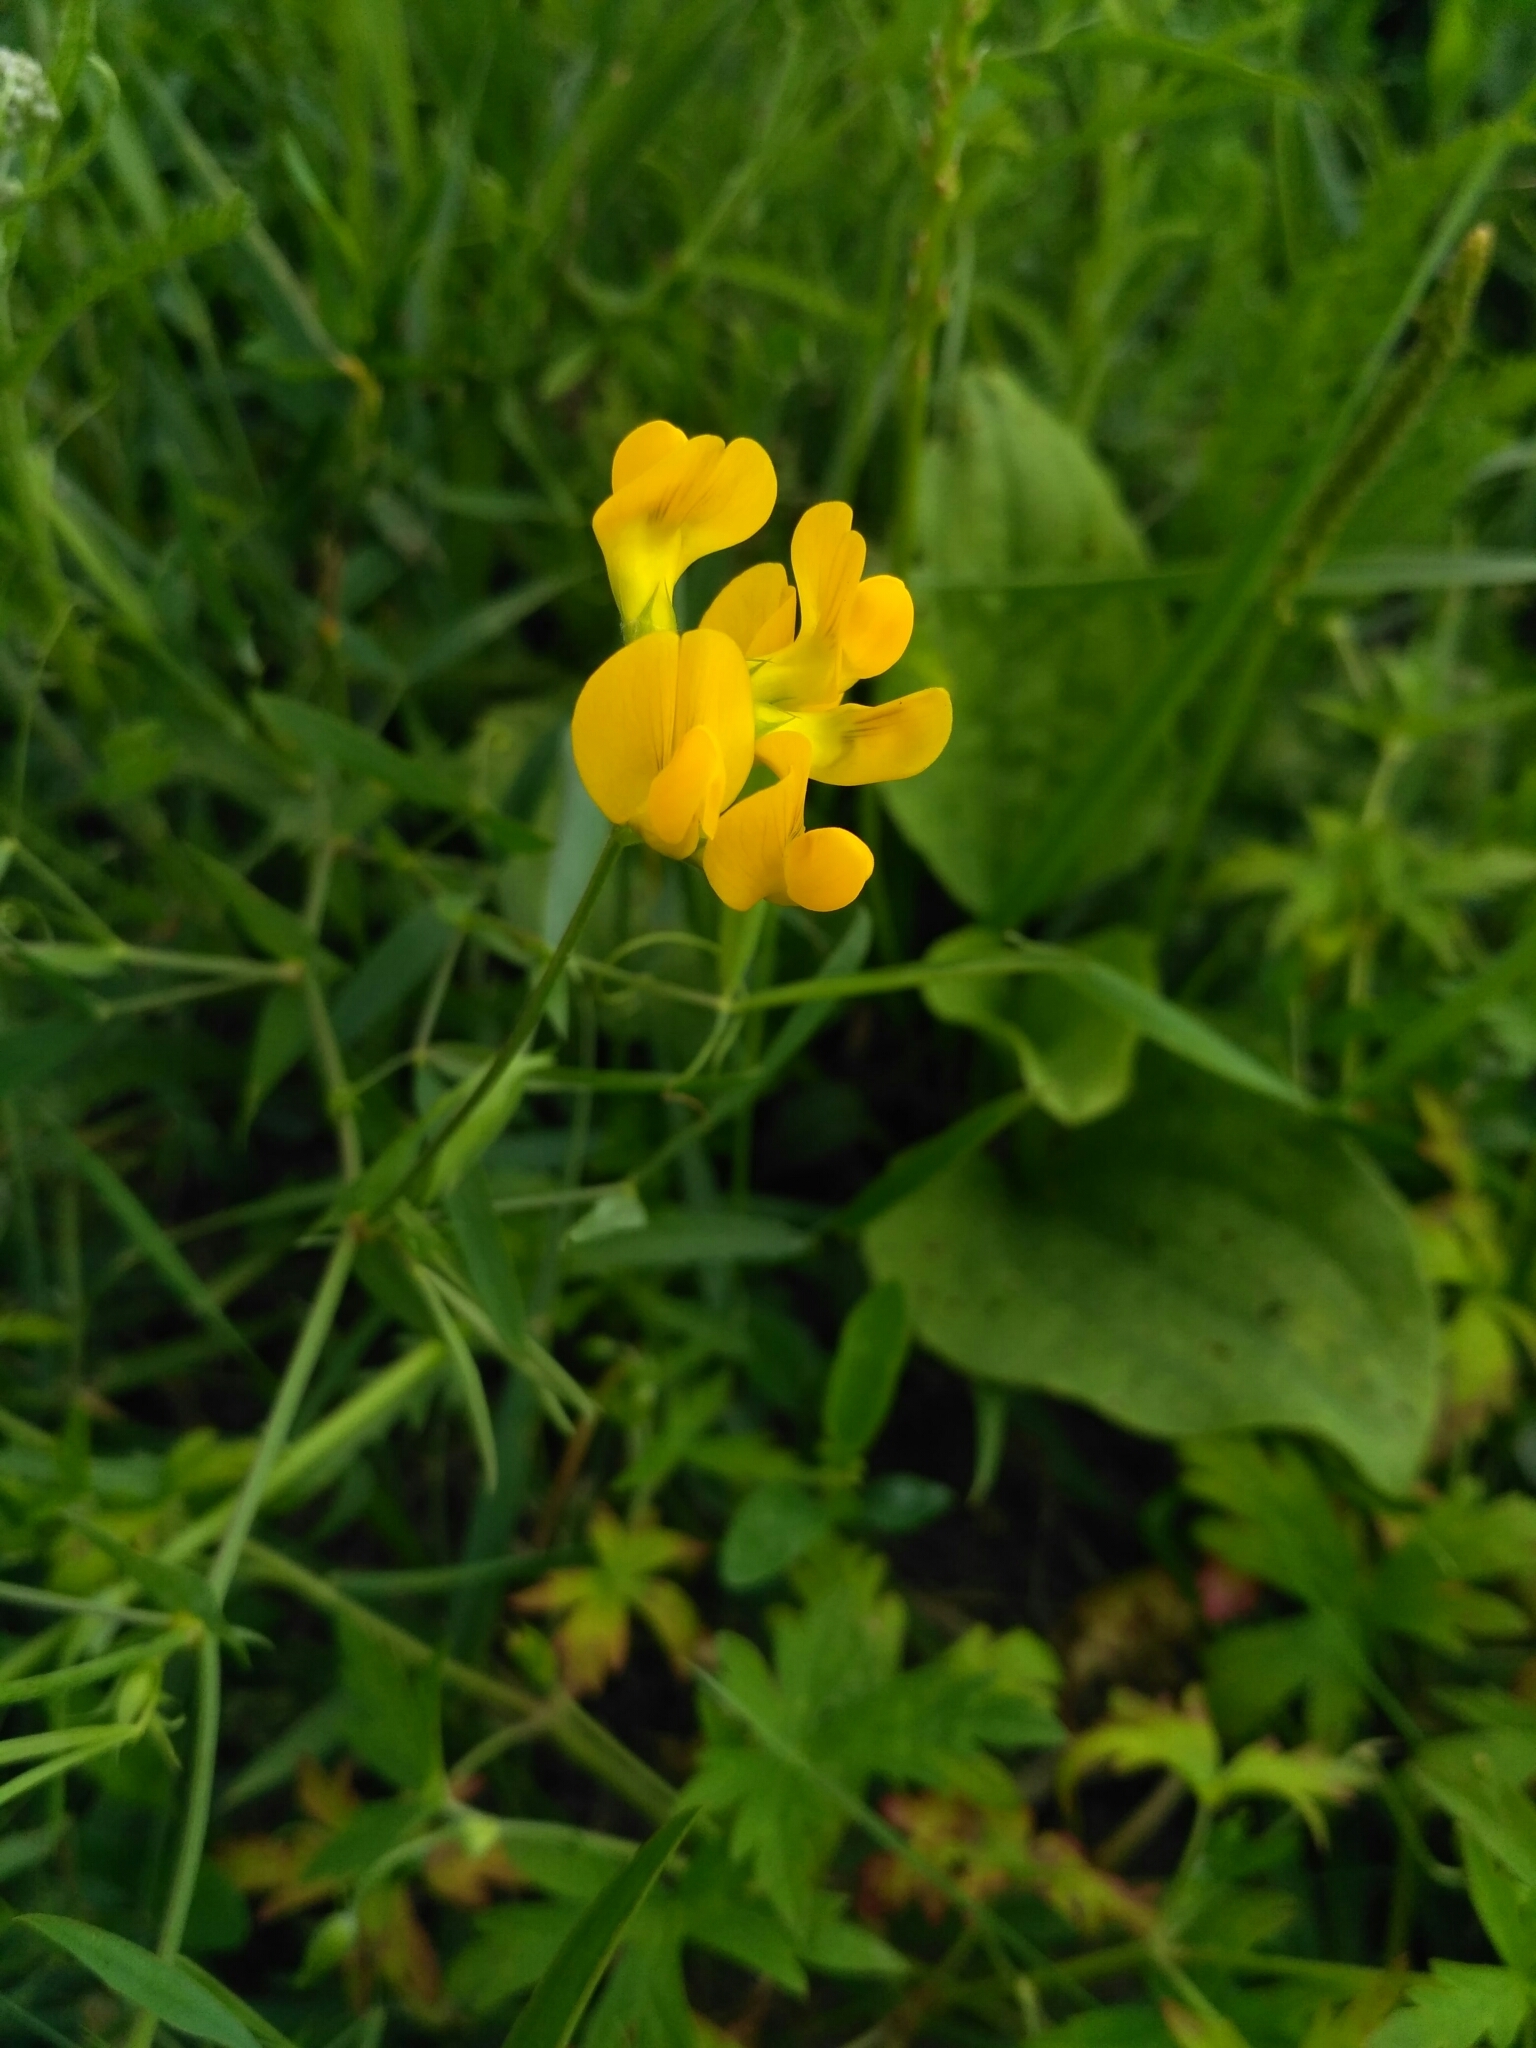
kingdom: Plantae
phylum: Tracheophyta
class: Magnoliopsida
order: Fabales
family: Fabaceae
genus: Lathyrus
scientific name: Lathyrus pratensis
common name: Meadow vetchling
